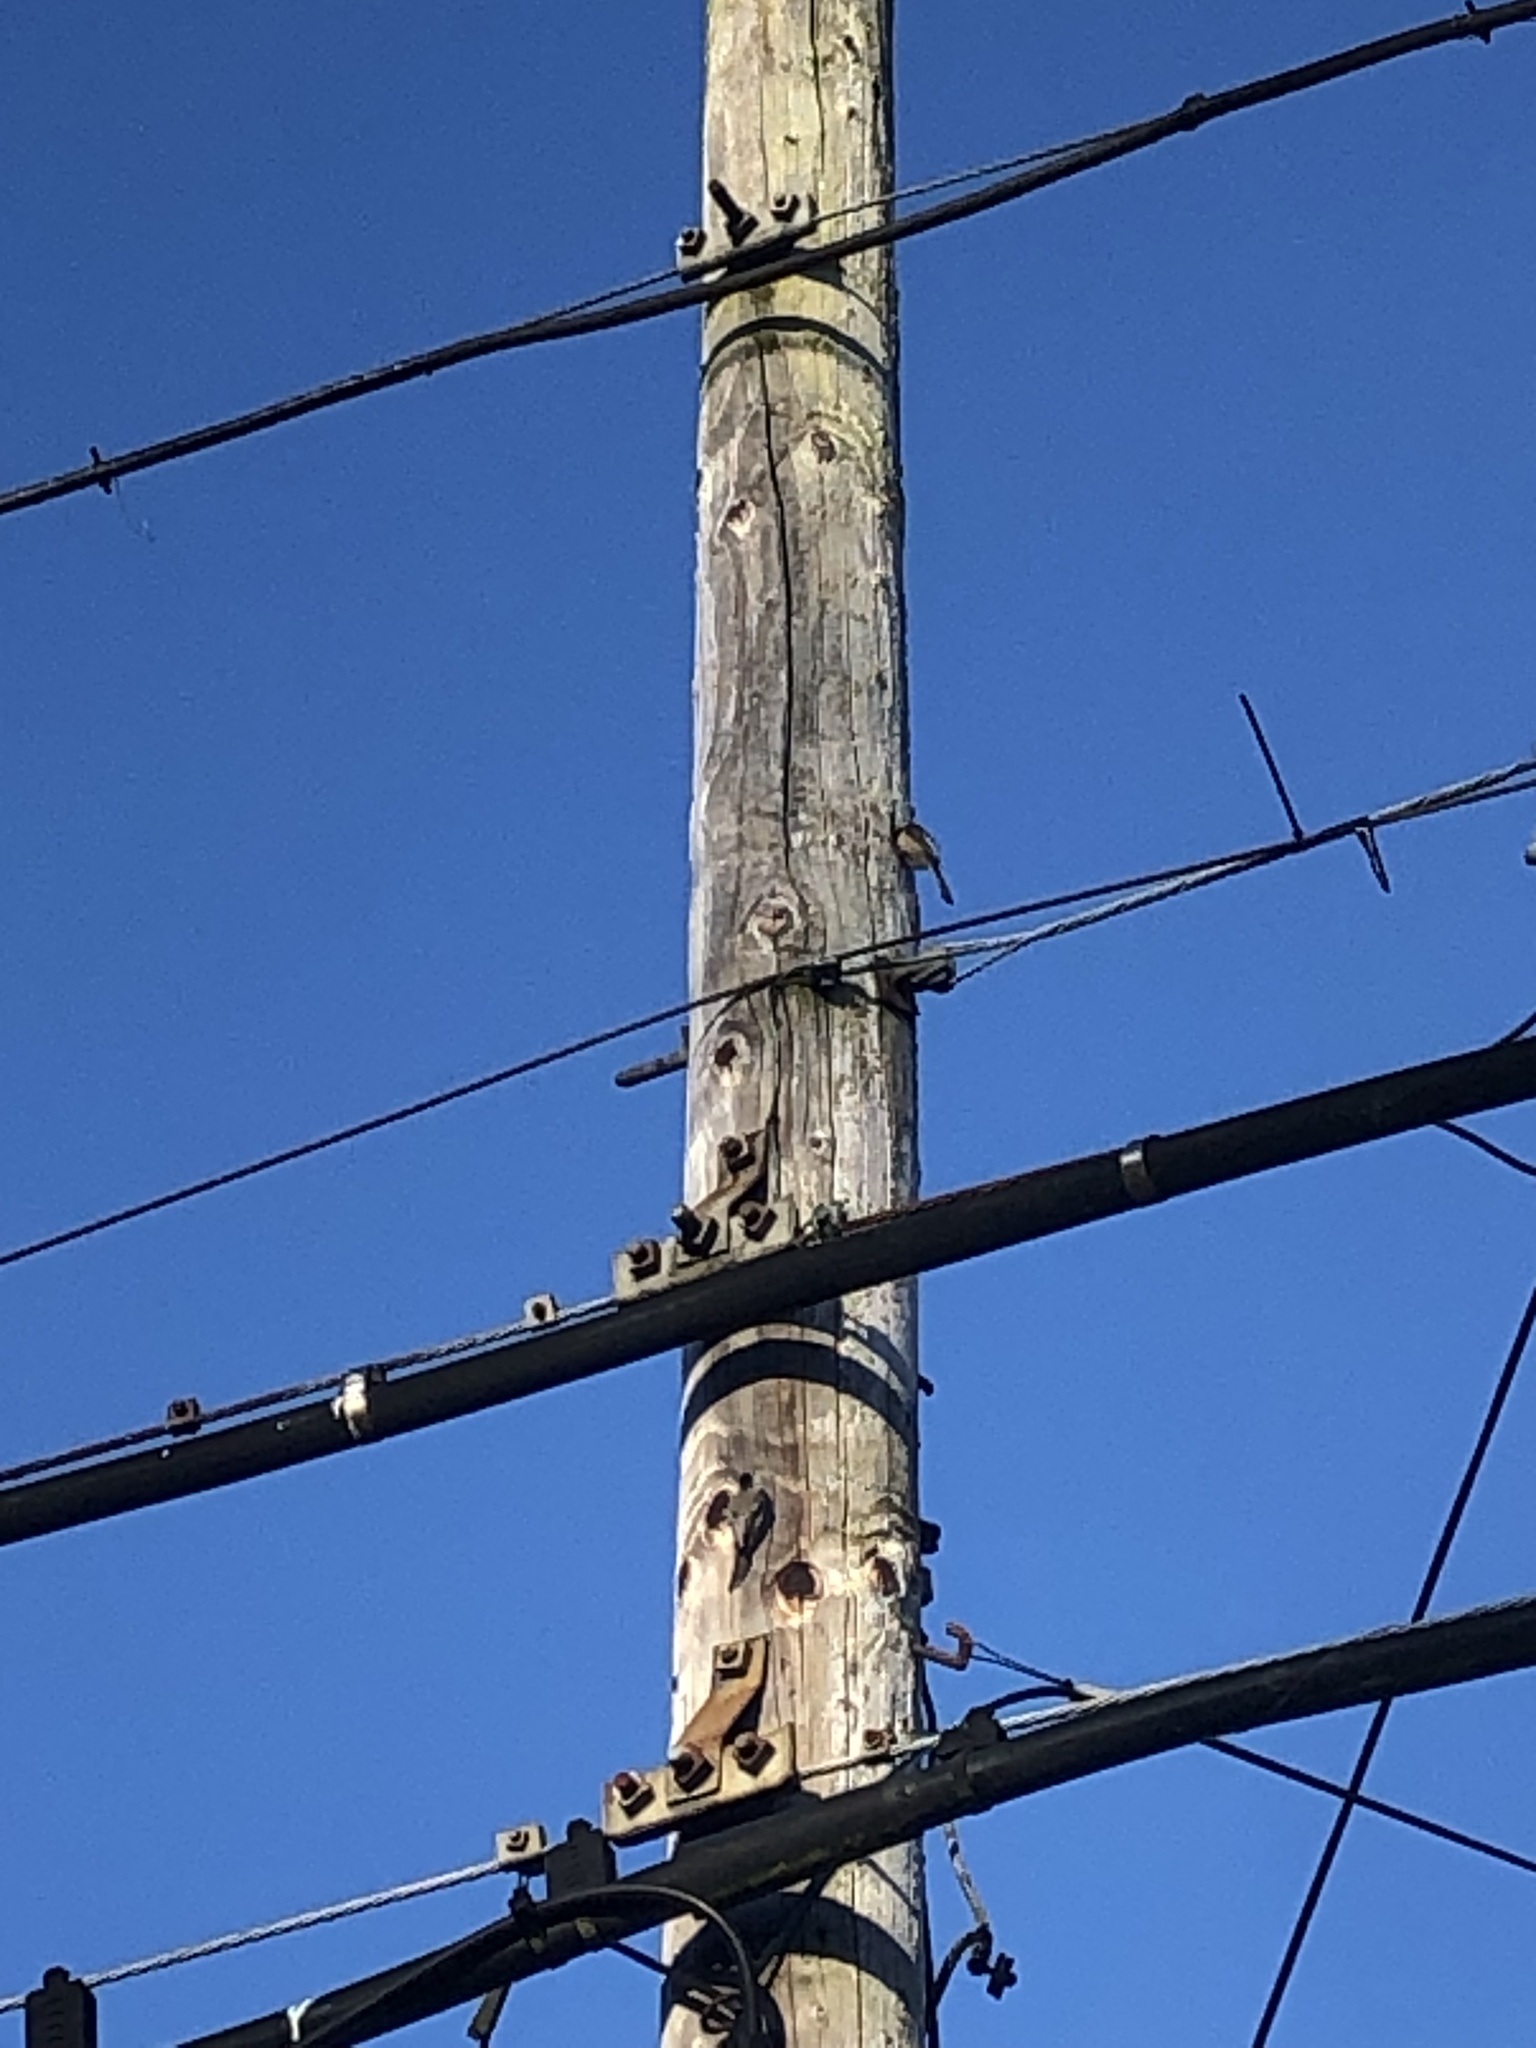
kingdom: Animalia
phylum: Chordata
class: Aves
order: Passeriformes
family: Paridae
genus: Poecile
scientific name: Poecile atricapillus
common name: Black-capped chickadee
